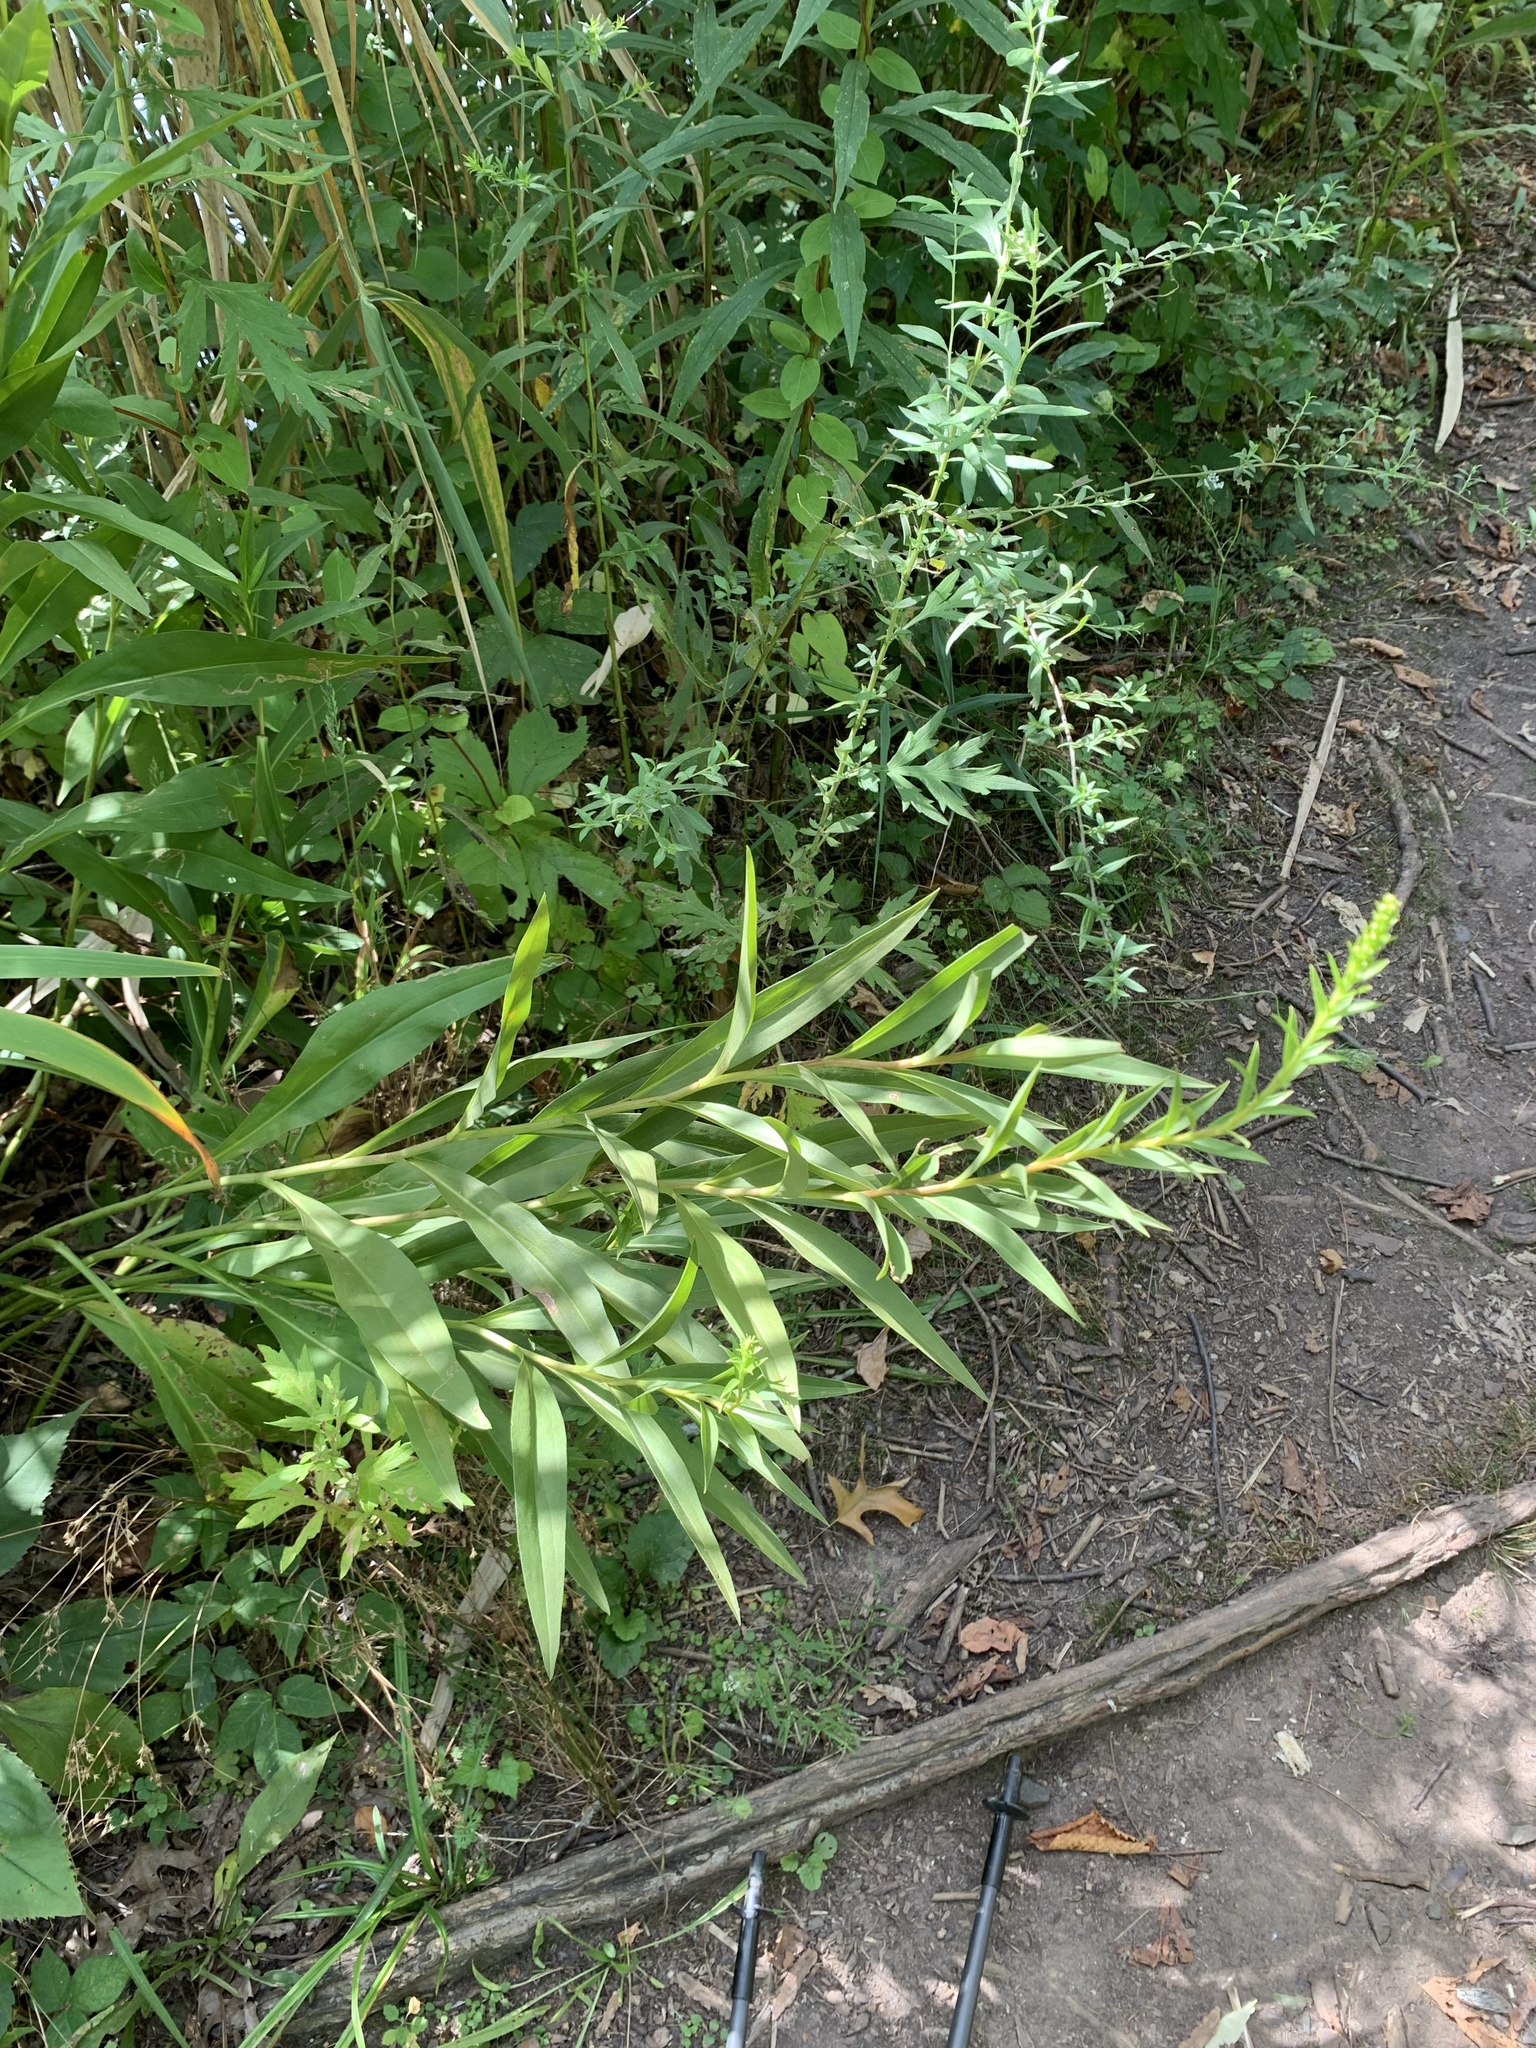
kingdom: Plantae
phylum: Tracheophyta
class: Magnoliopsida
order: Asterales
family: Asteraceae
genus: Solidago
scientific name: Solidago sempervirens
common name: Salt-marsh goldenrod
